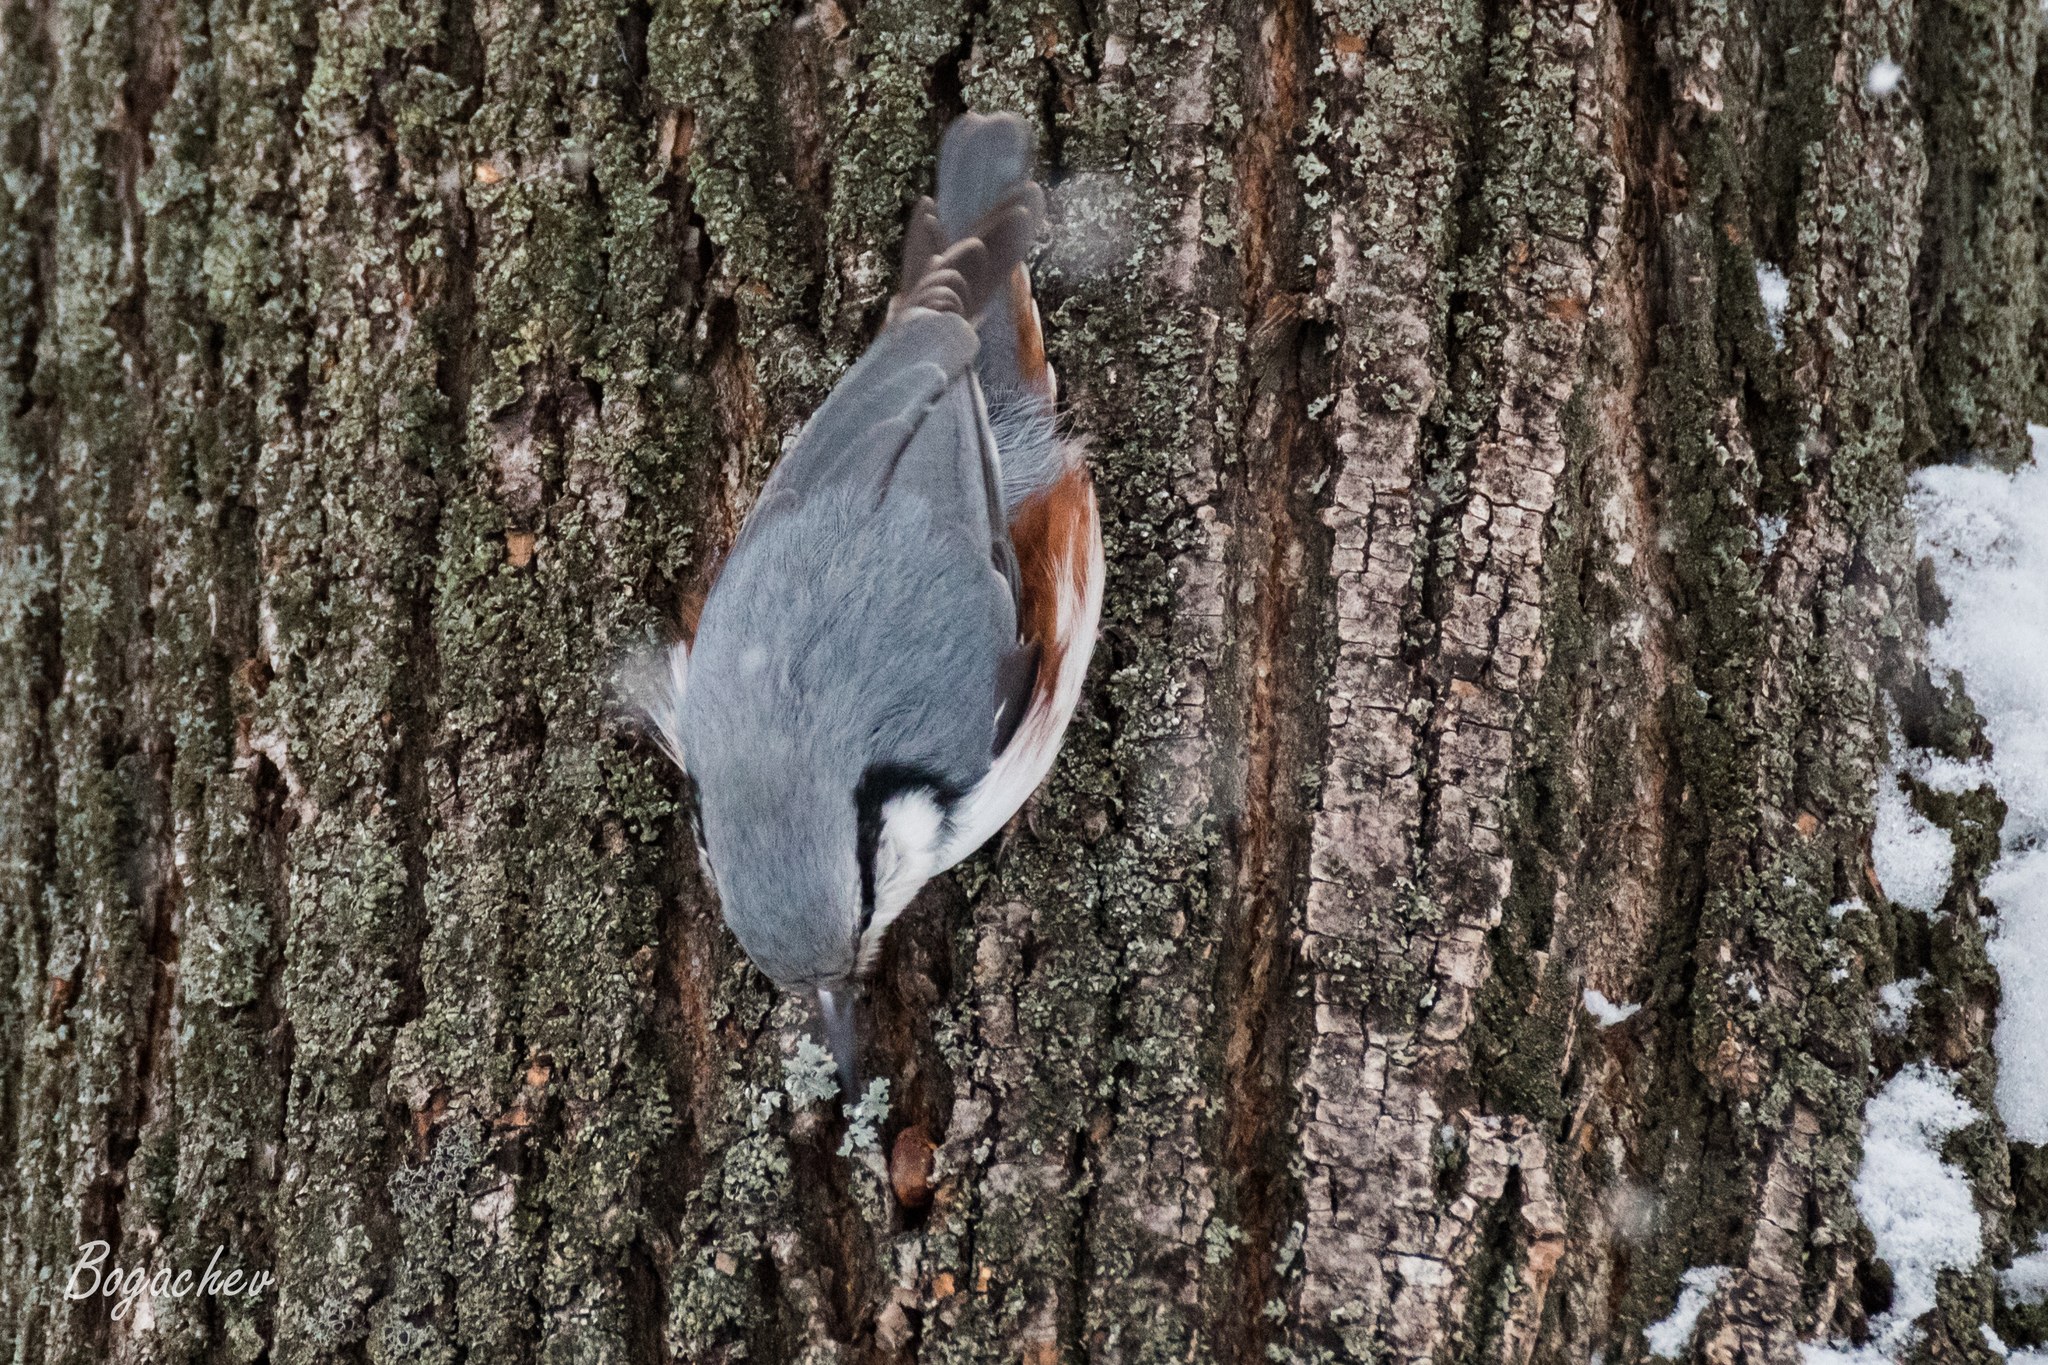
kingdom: Animalia
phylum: Chordata
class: Aves
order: Passeriformes
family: Sittidae
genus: Sitta
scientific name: Sitta europaea
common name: Eurasian nuthatch
